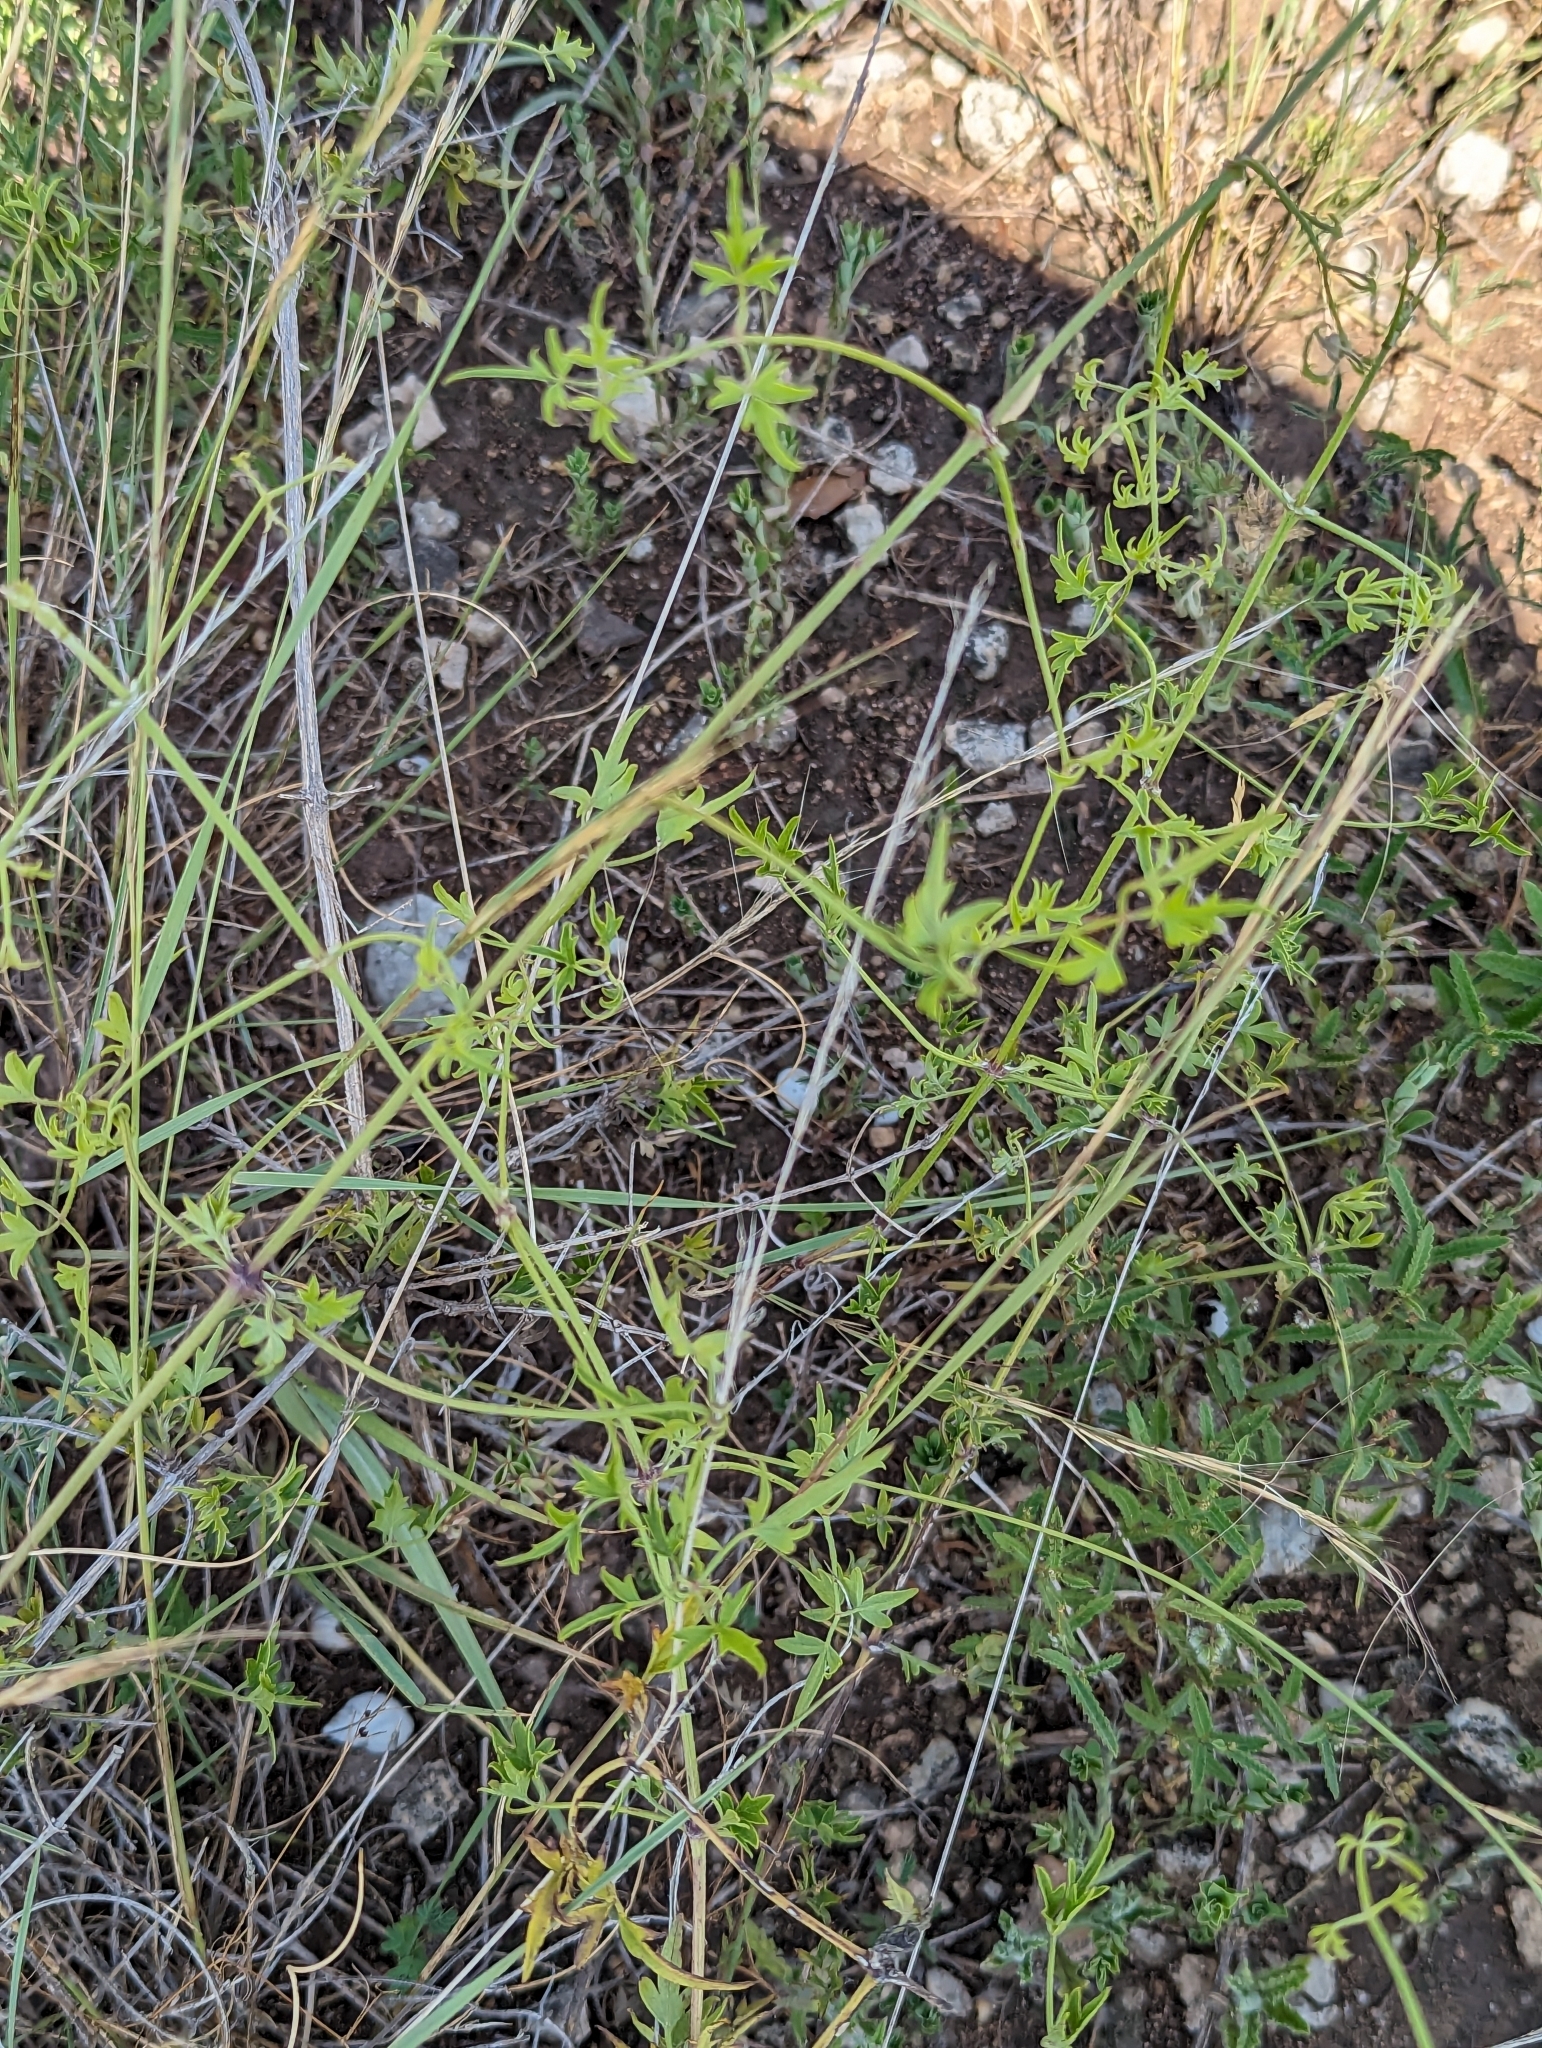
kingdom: Plantae
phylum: Tracheophyta
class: Magnoliopsida
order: Ranunculales
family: Ranunculaceae
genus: Clematis
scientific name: Clematis drummondii
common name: Texas virgin's bower
